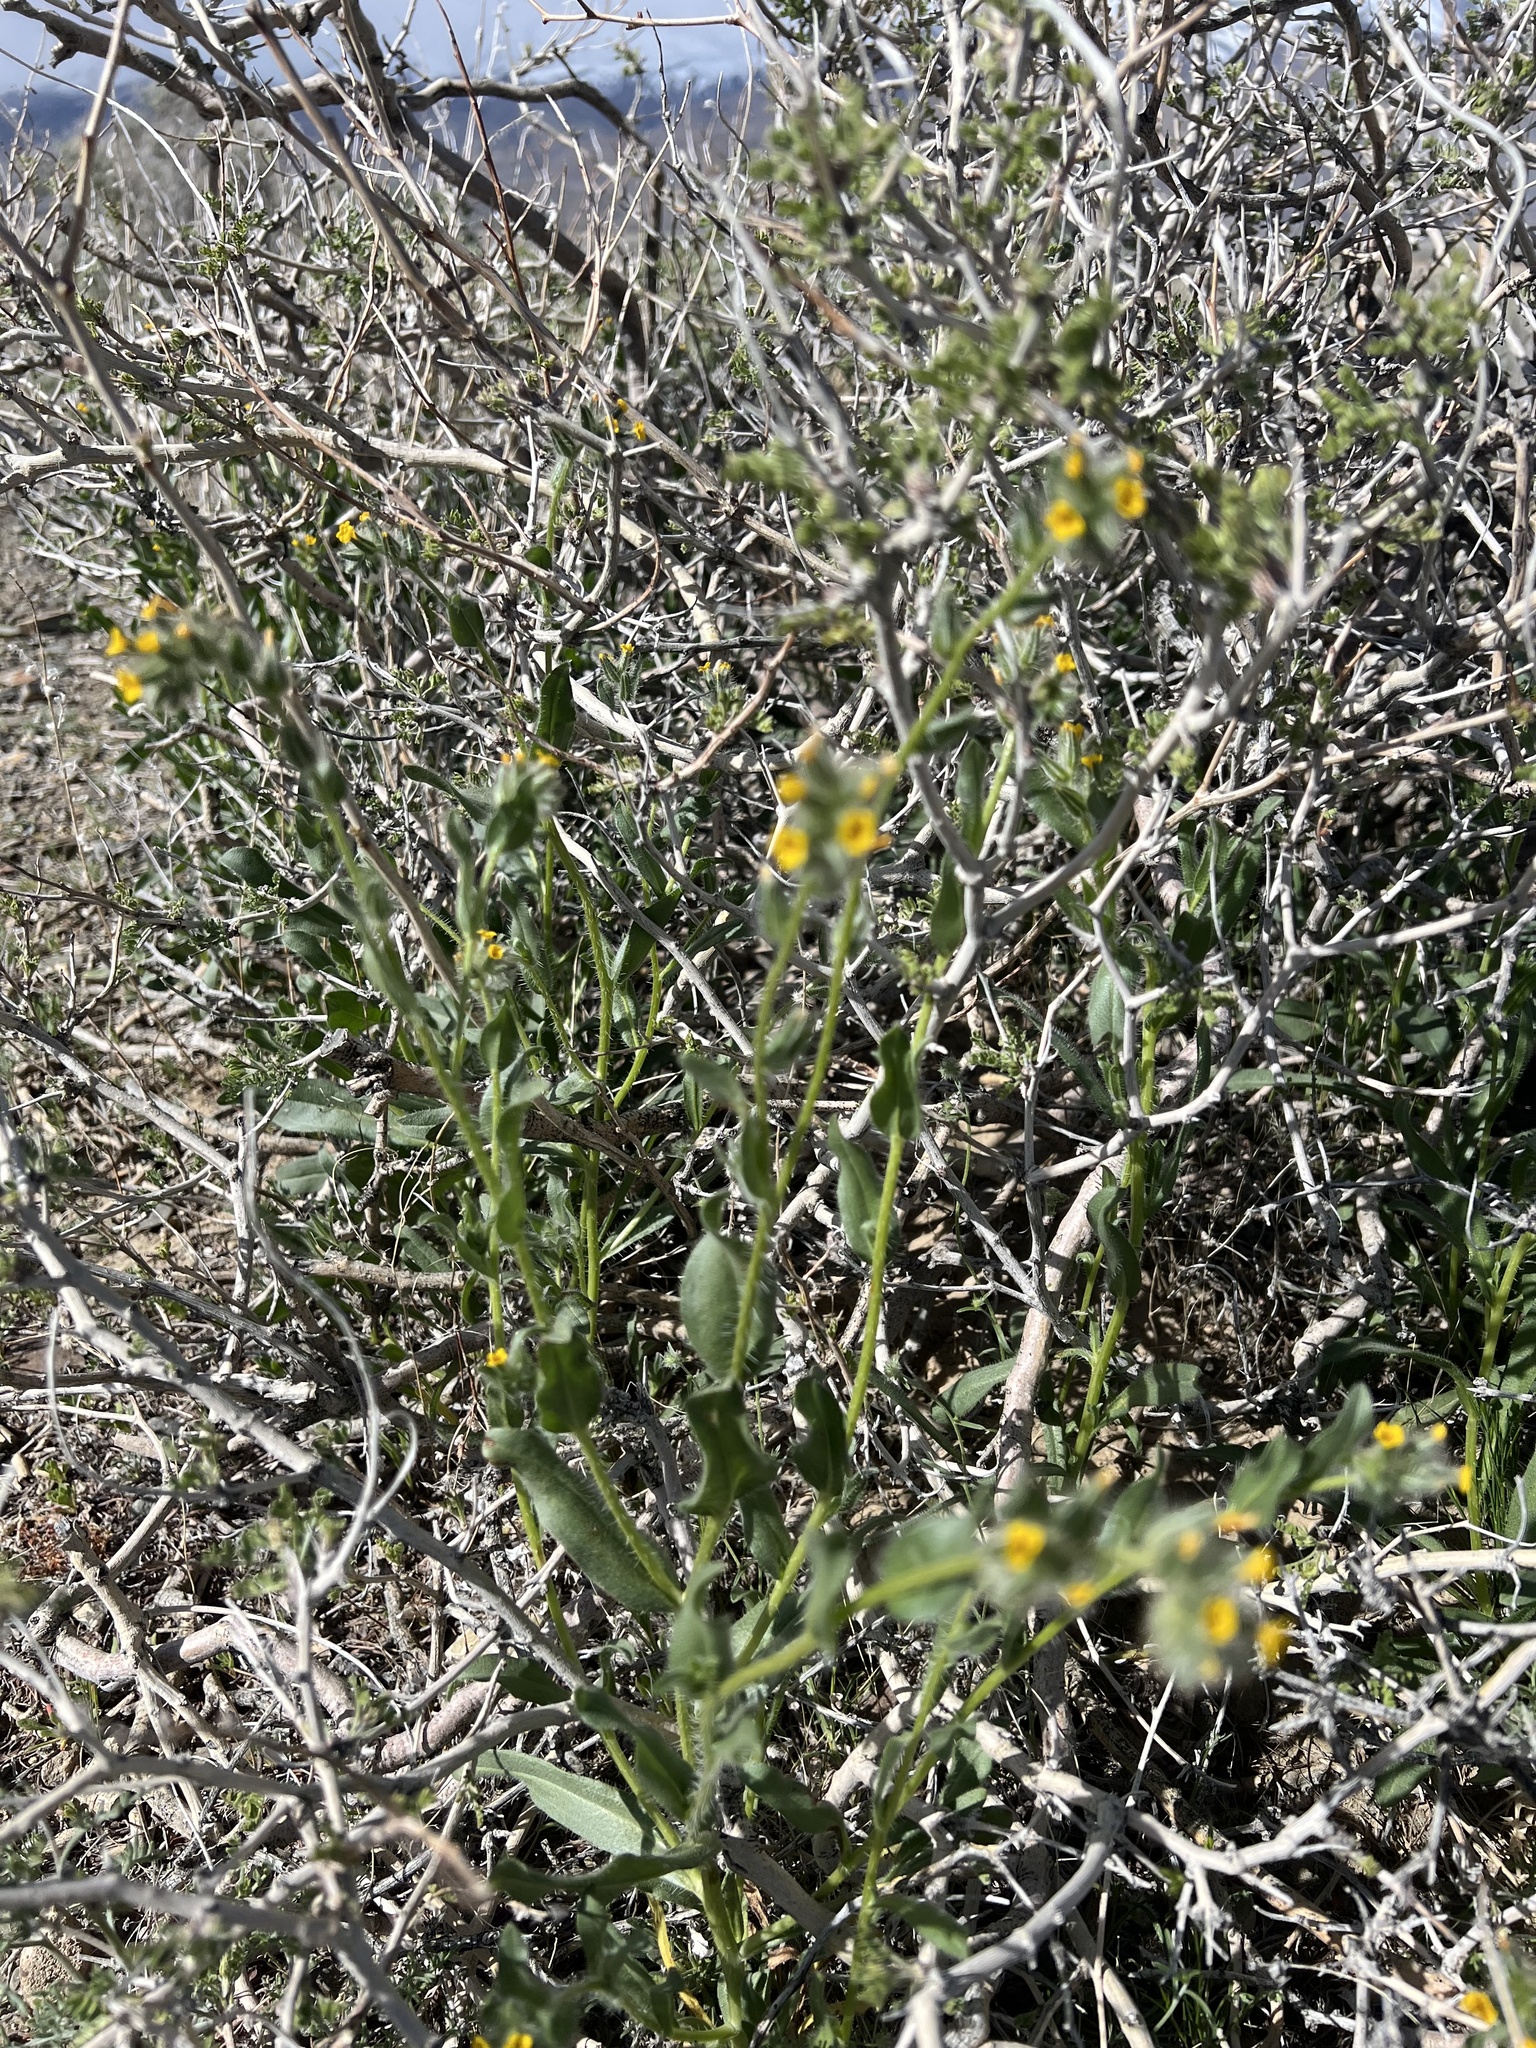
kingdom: Plantae
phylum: Tracheophyta
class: Magnoliopsida
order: Boraginales
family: Boraginaceae
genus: Amsinckia
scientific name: Amsinckia tessellata
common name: Tessellate fiddleneck
